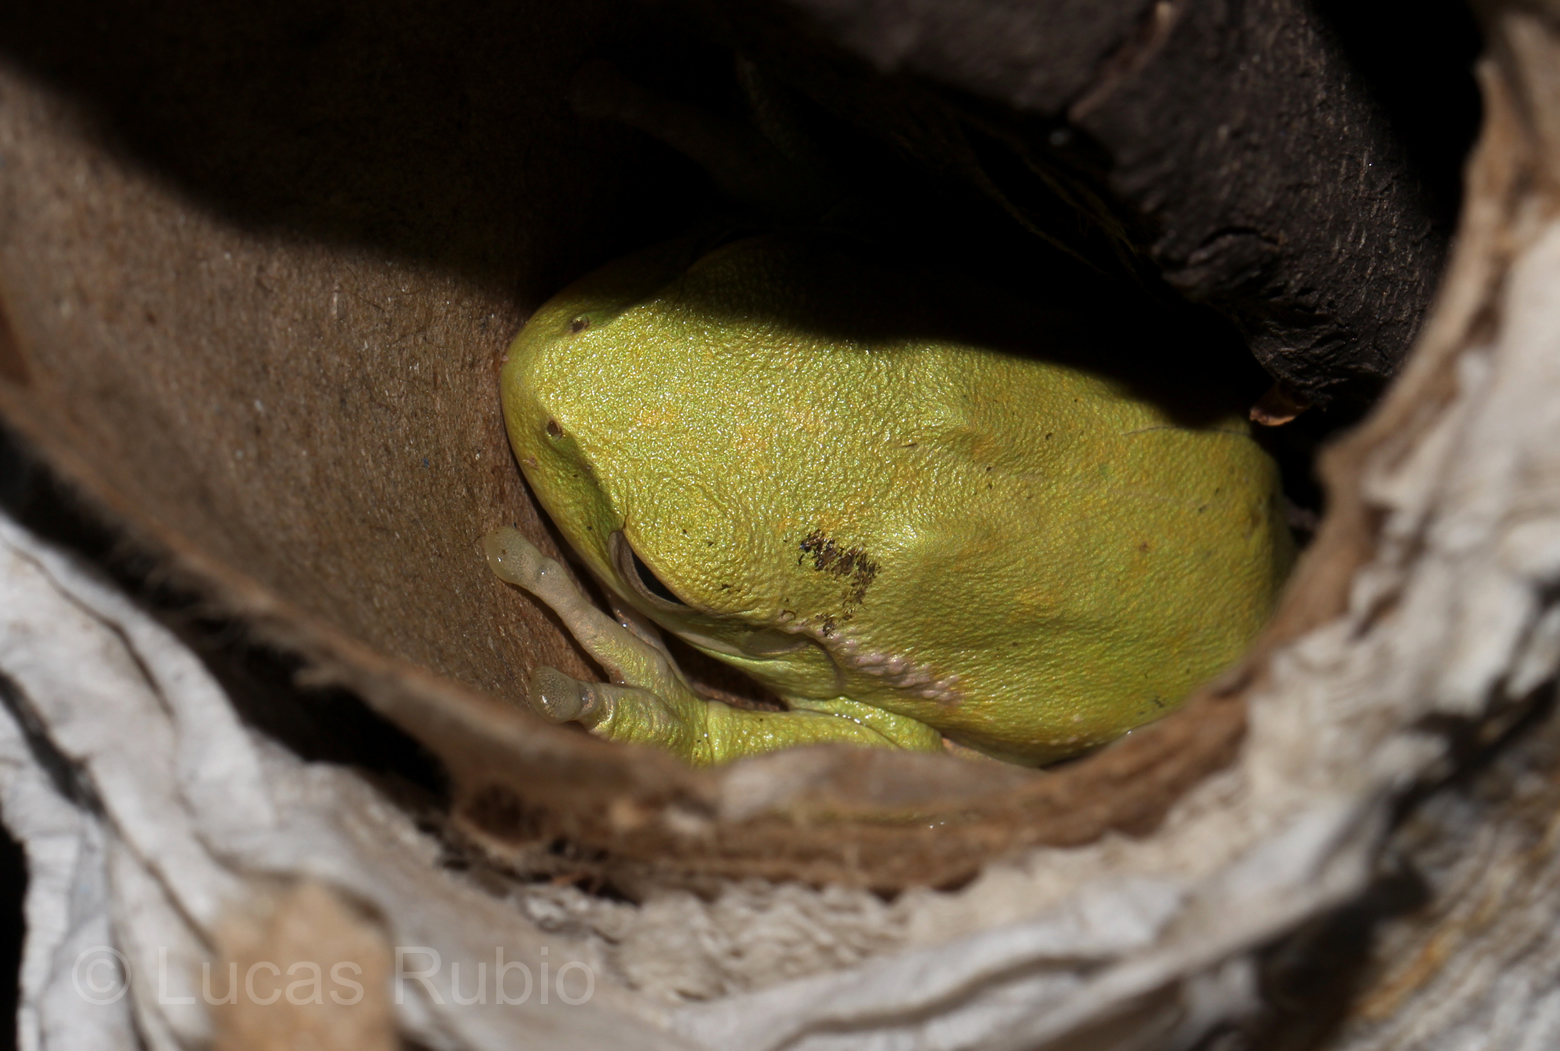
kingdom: Animalia
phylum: Chordata
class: Amphibia
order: Anura
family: Hylidae
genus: Boana
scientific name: Boana riojana
